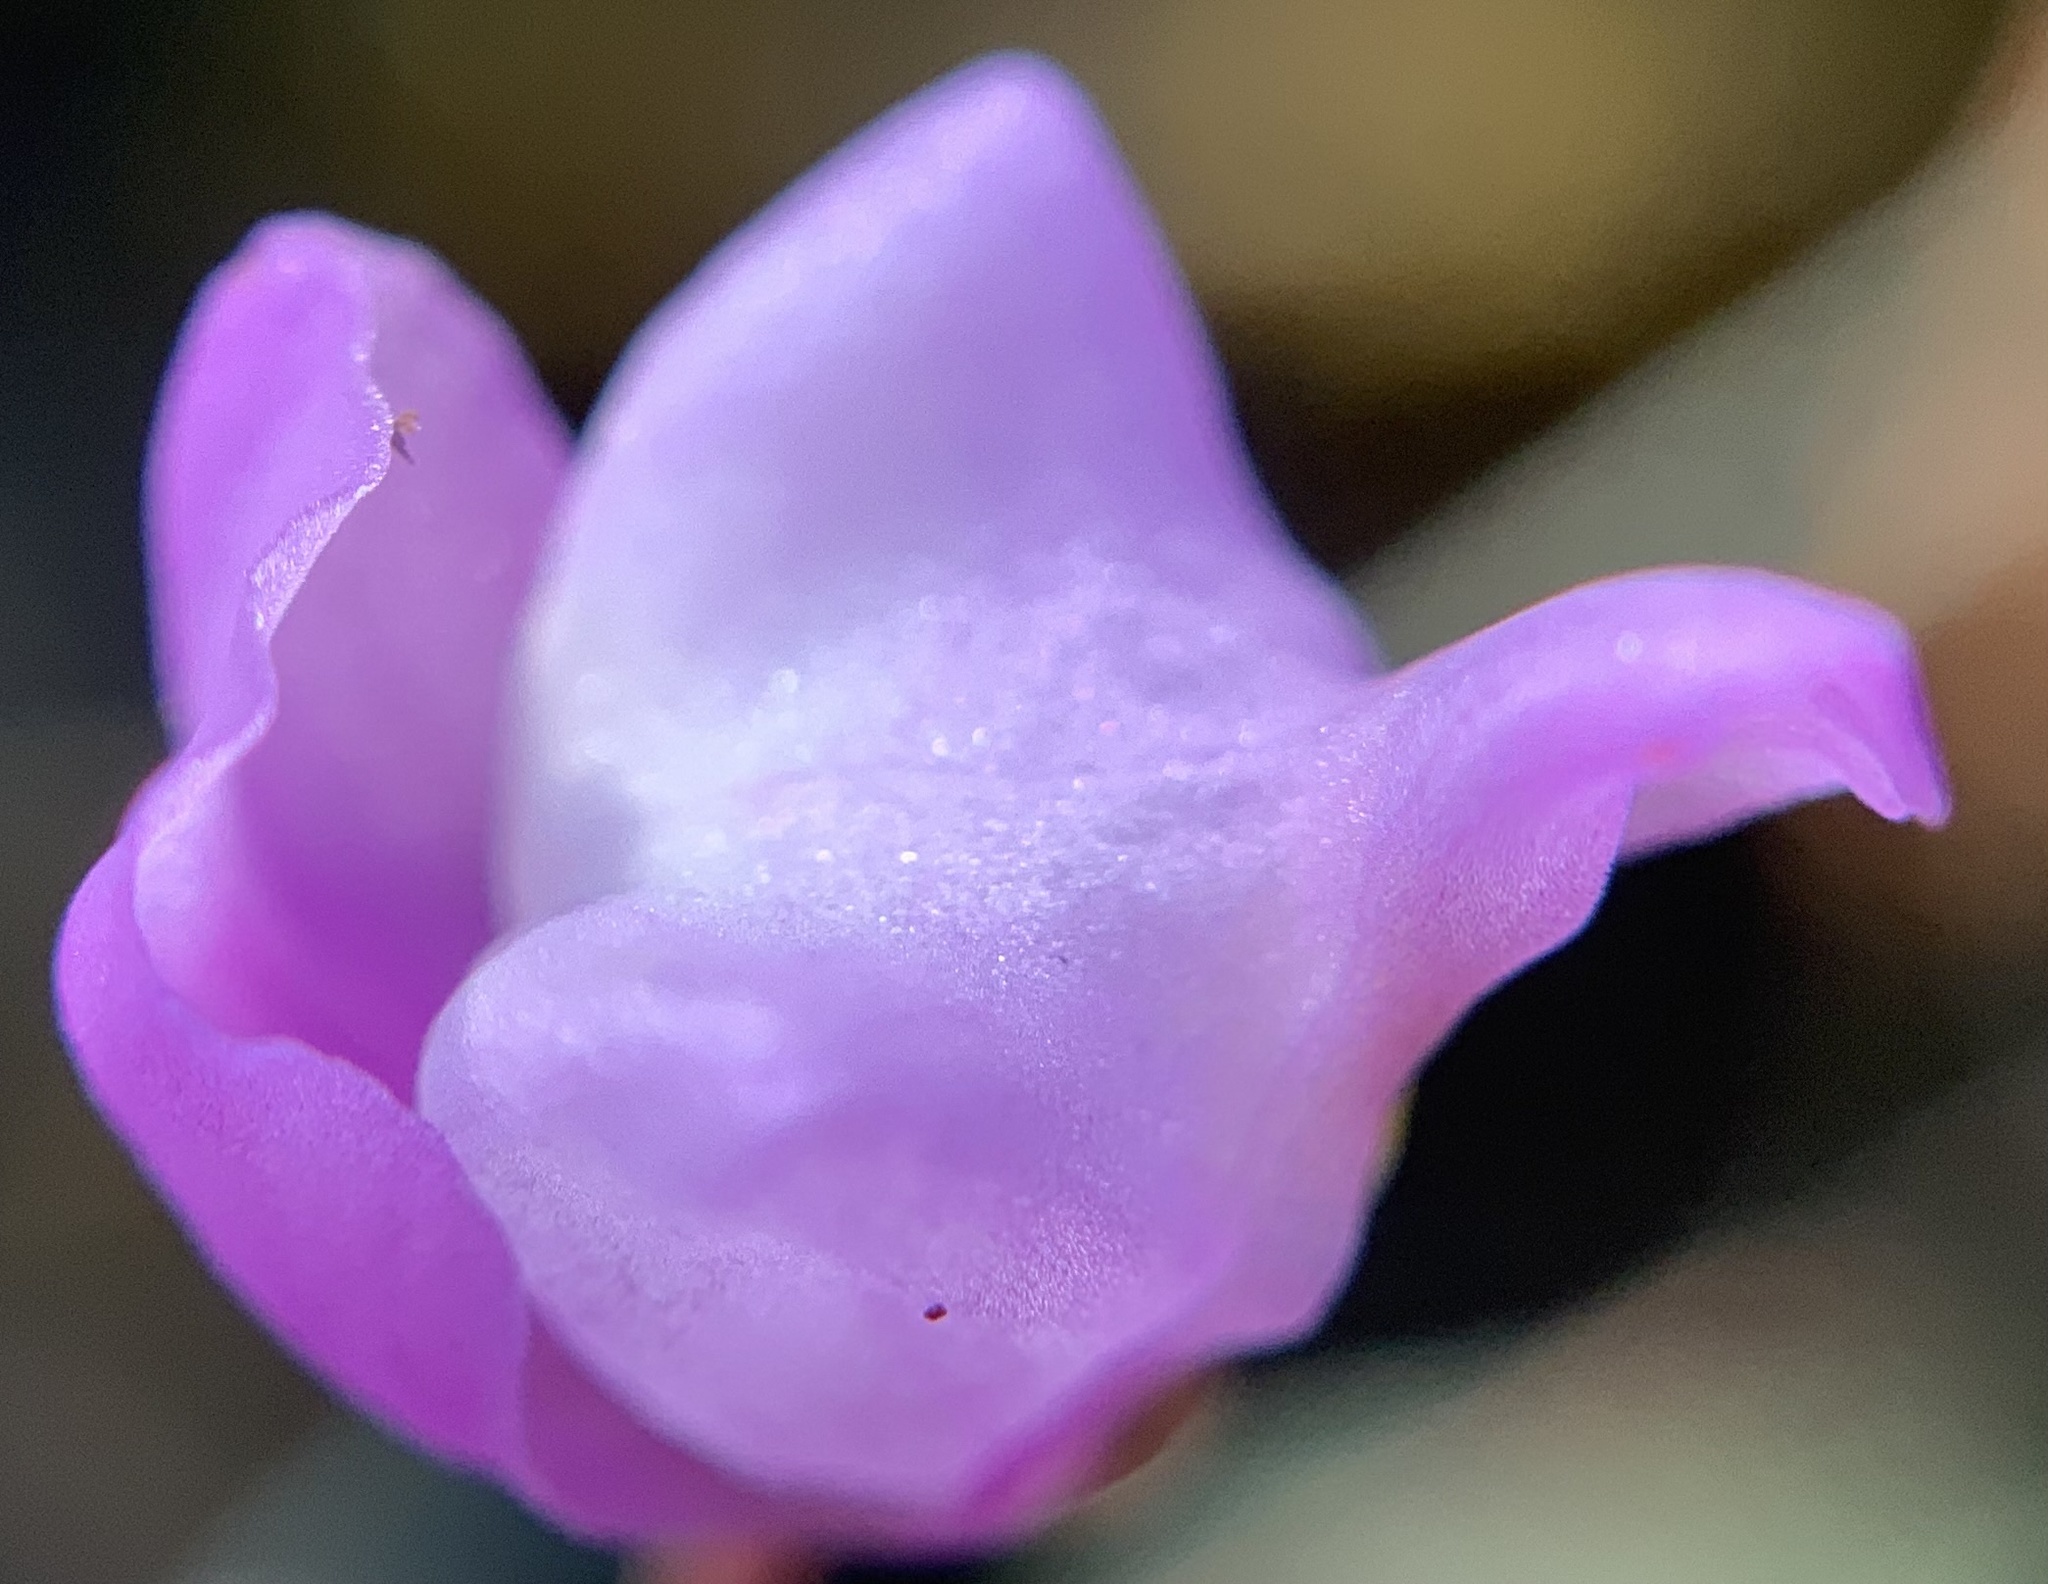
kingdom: Plantae
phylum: Tracheophyta
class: Magnoliopsida
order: Lamiales
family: Lentibulariaceae
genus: Utricularia
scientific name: Utricularia purpurea
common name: Eastern purple bladderwort
